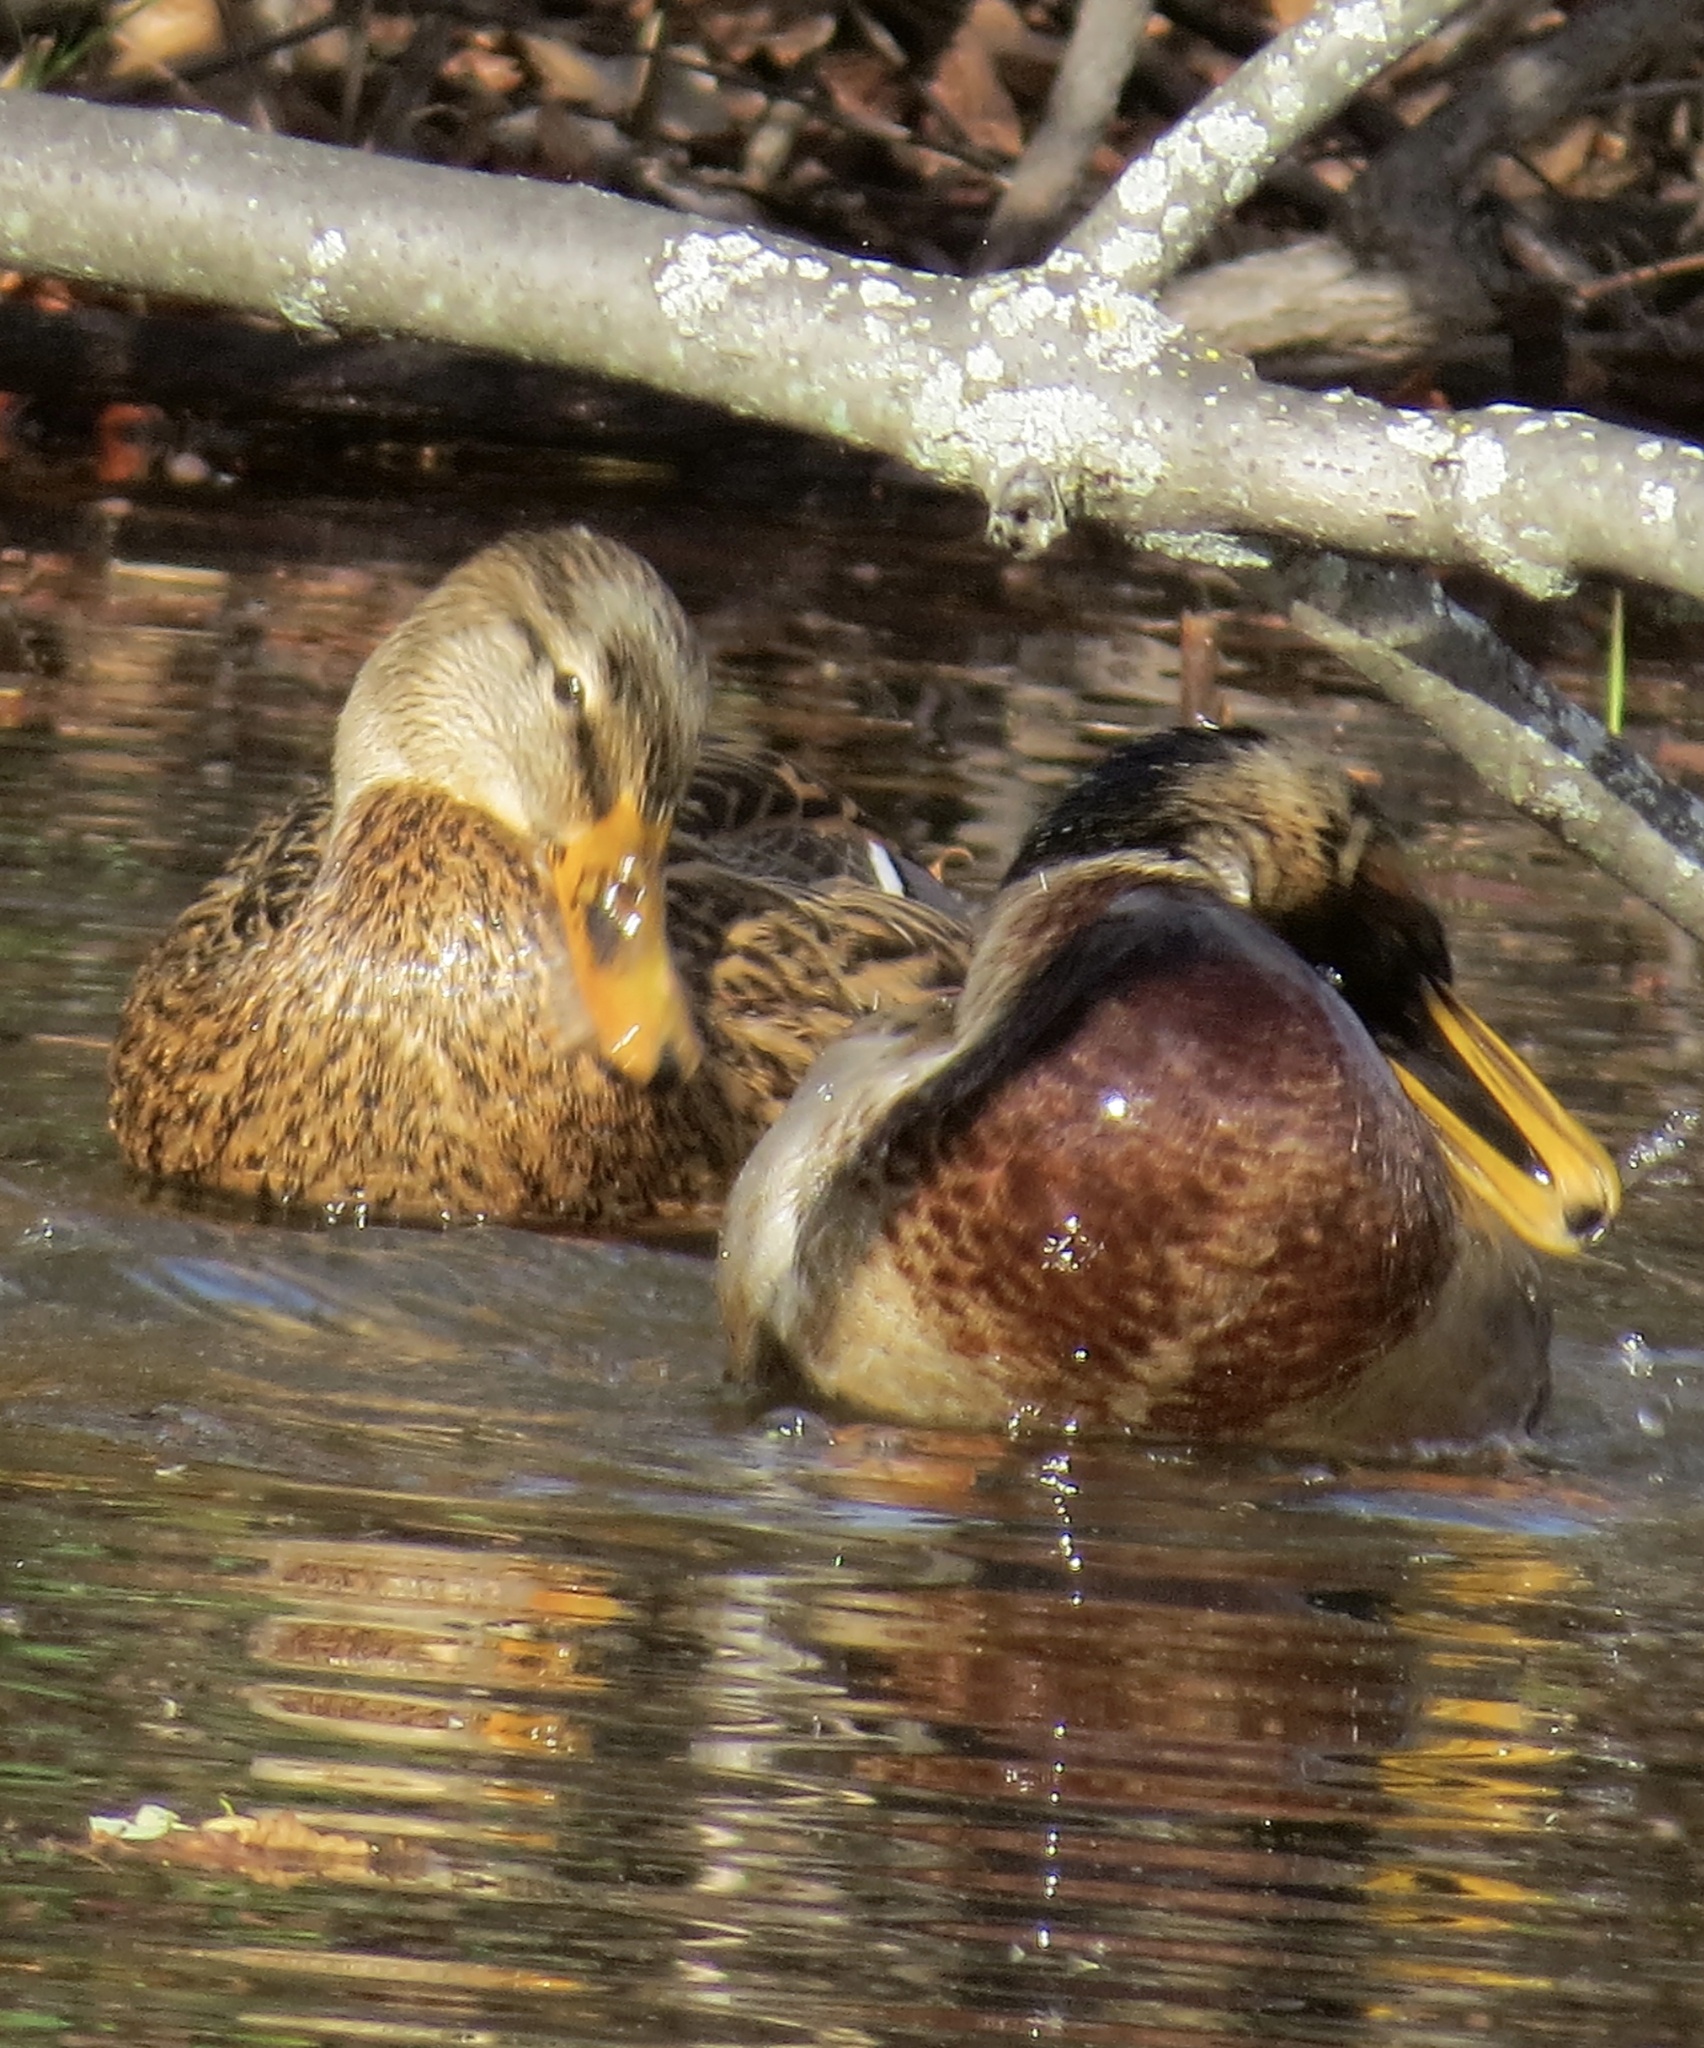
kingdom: Animalia
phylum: Chordata
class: Aves
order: Anseriformes
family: Anatidae
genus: Anas
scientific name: Anas platyrhynchos
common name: Mallard
